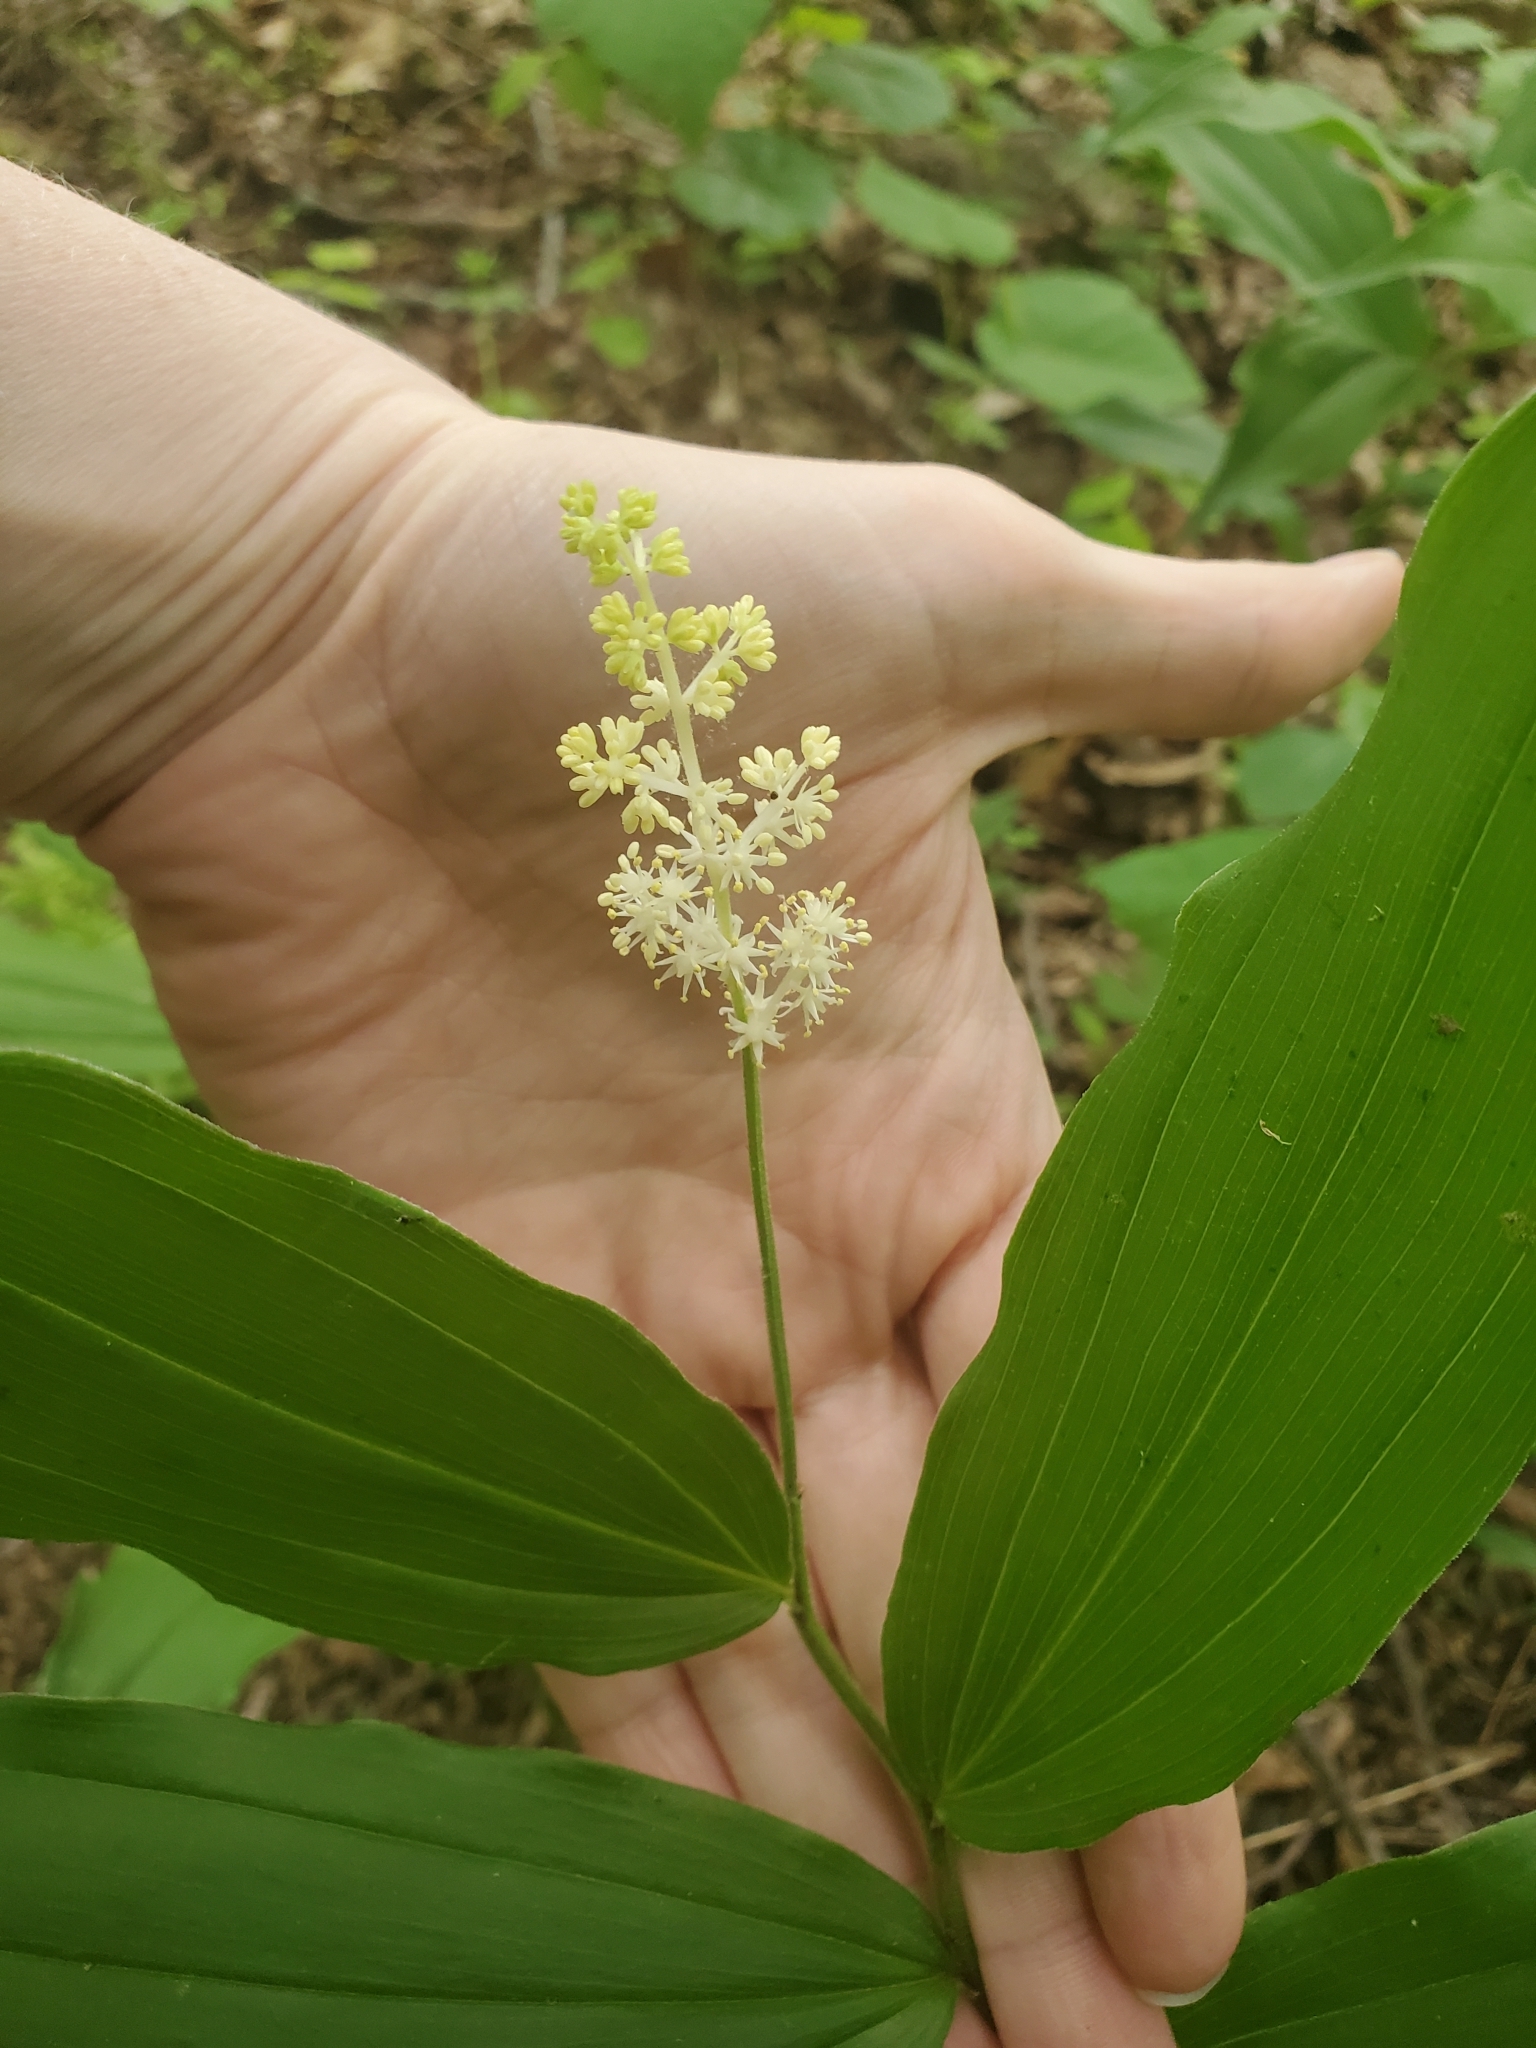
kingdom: Plantae
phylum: Tracheophyta
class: Liliopsida
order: Asparagales
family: Asparagaceae
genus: Maianthemum
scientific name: Maianthemum racemosum
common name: False spikenard
